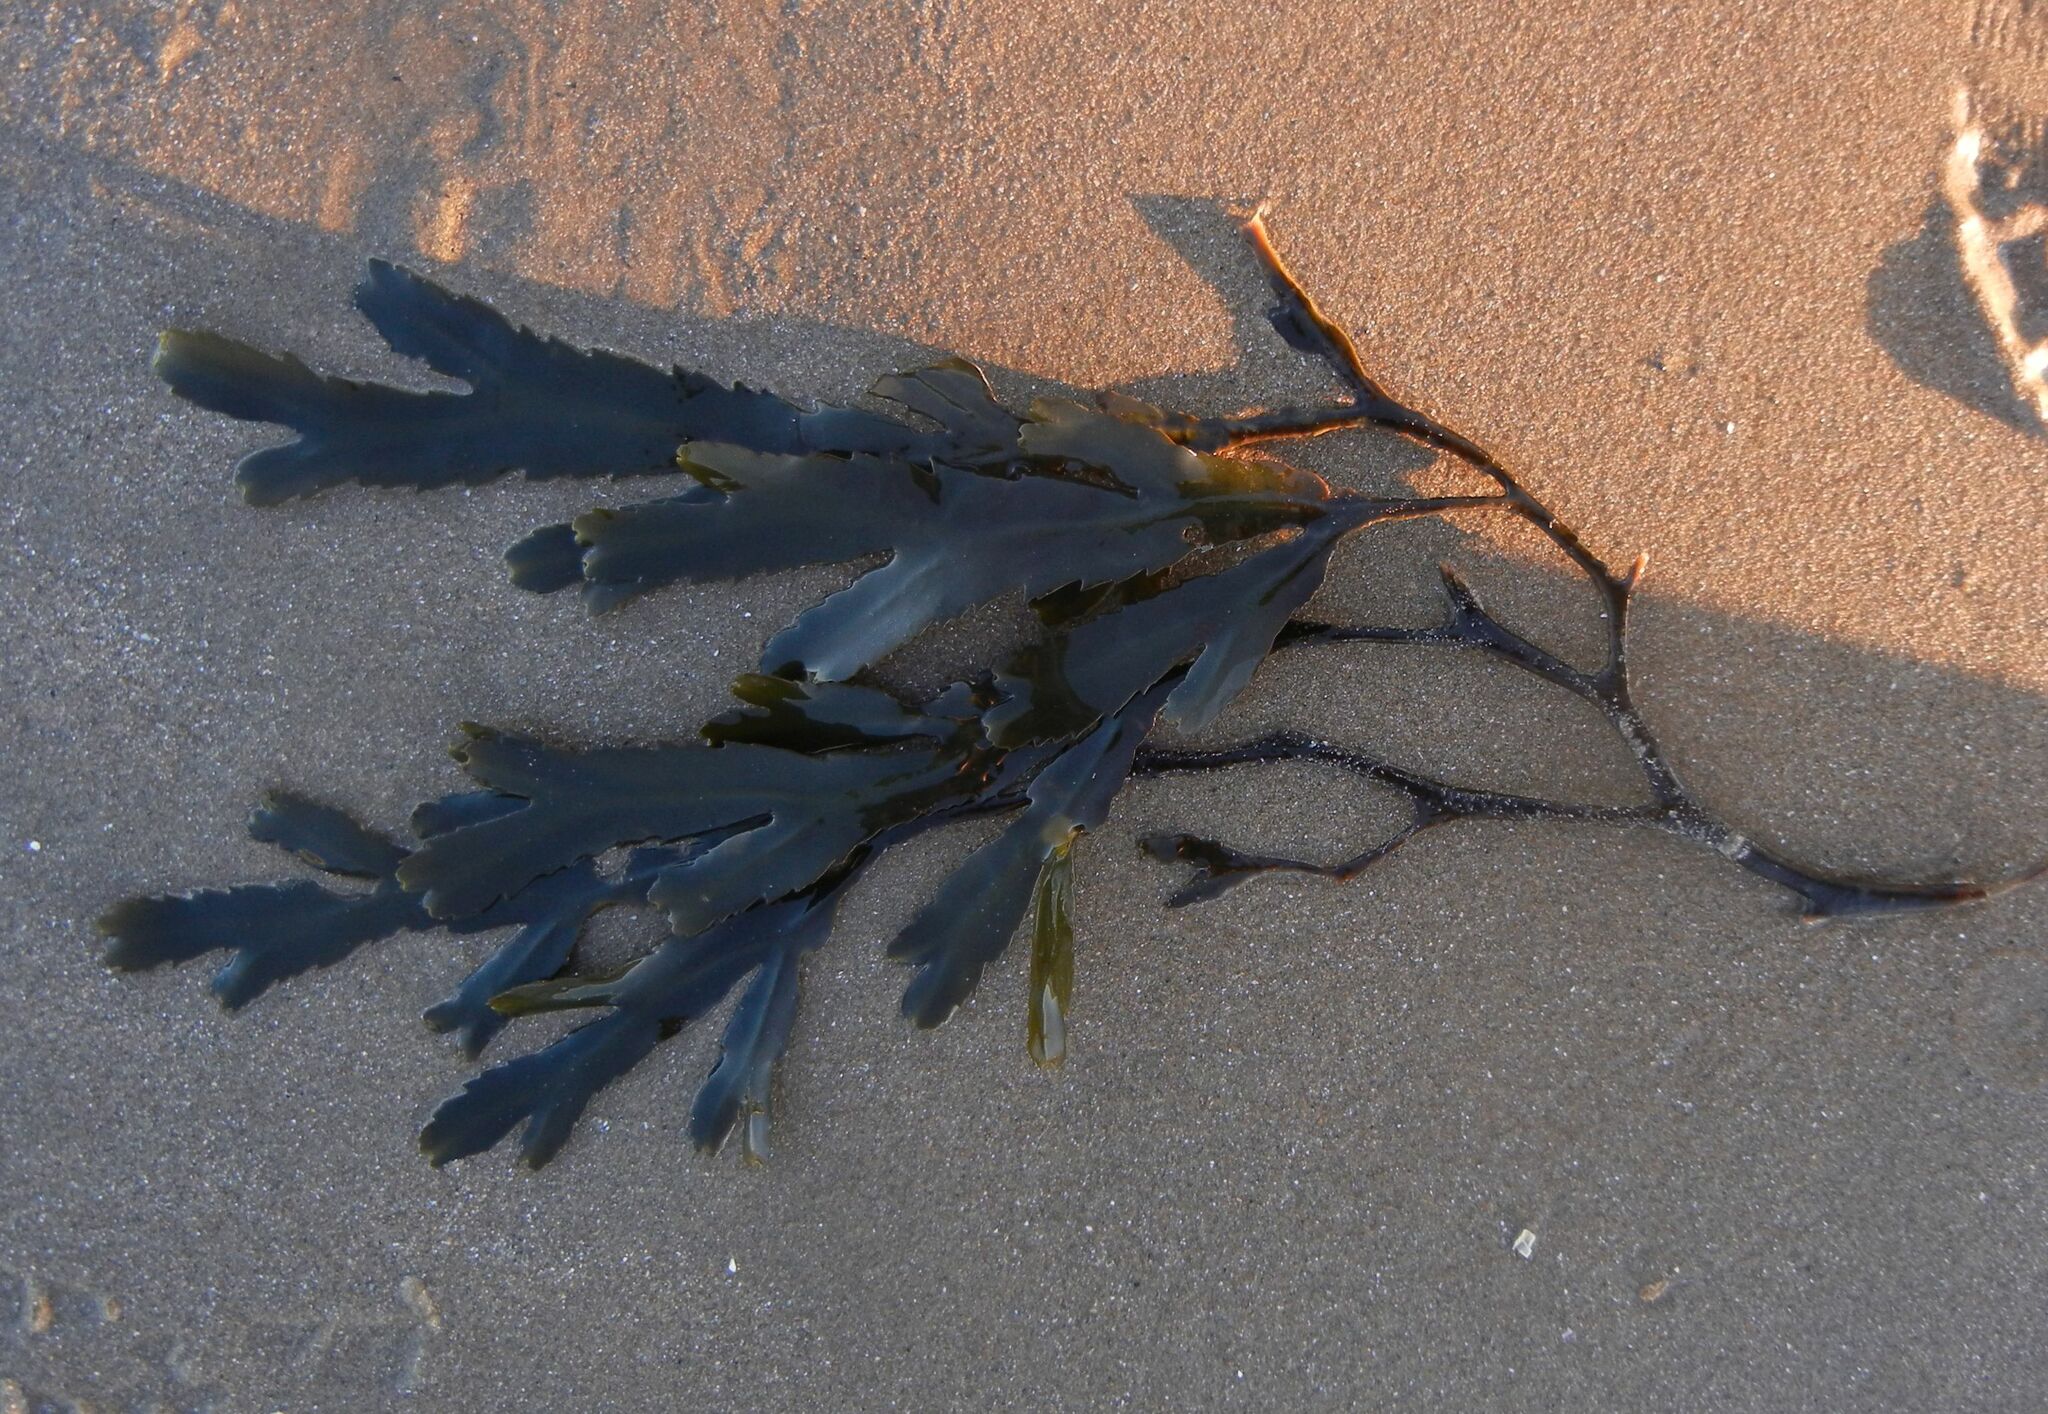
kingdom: Chromista
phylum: Ochrophyta
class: Phaeophyceae
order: Fucales
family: Fucaceae
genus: Fucus
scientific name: Fucus serratus
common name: Toothed wrack
